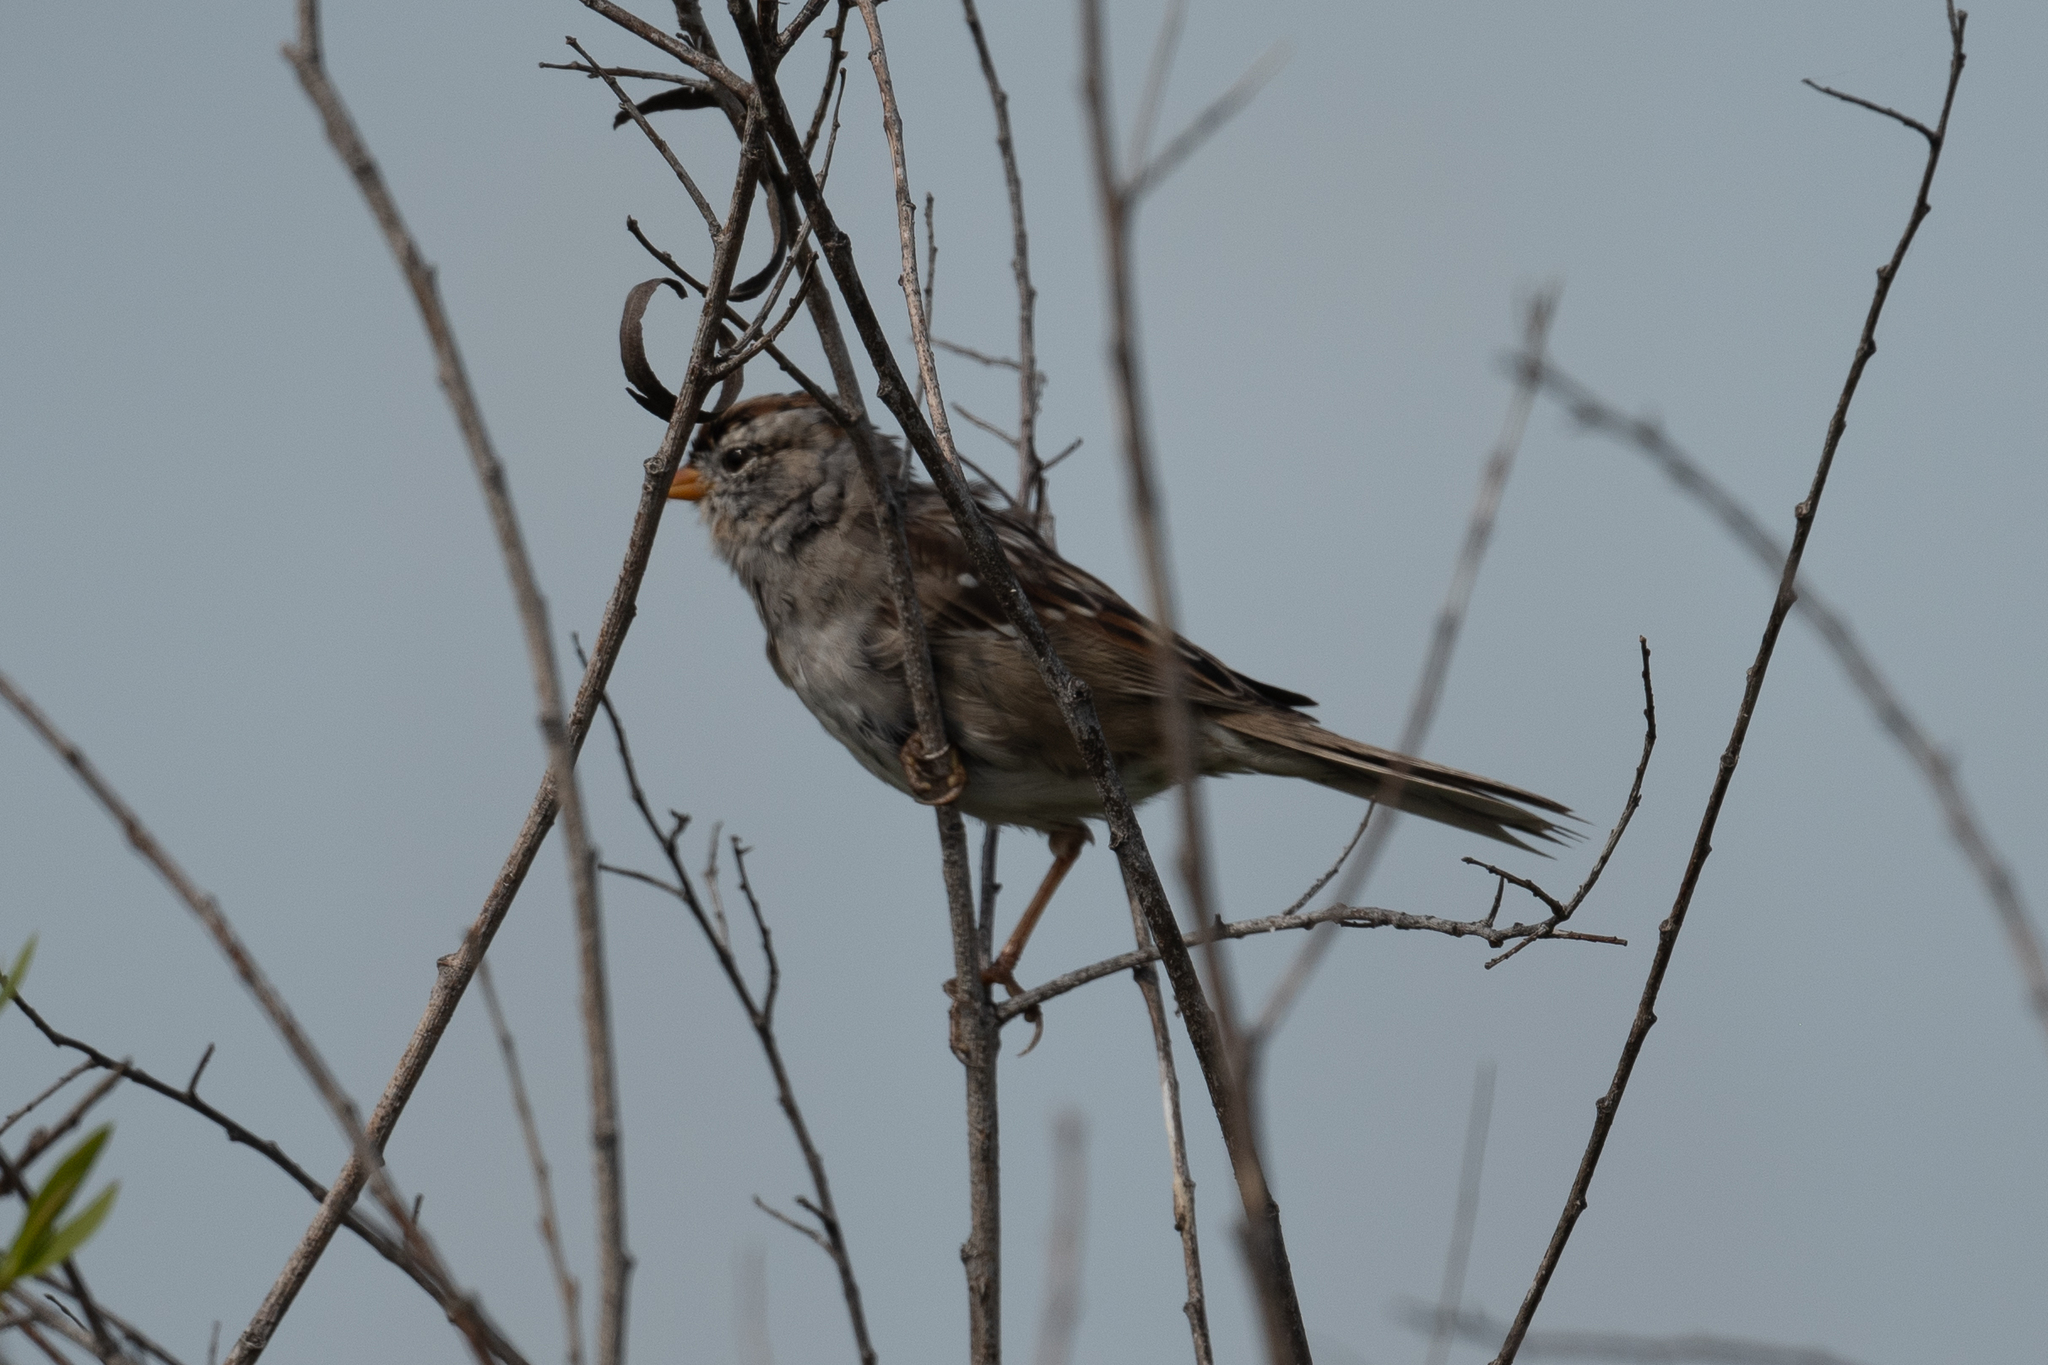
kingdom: Animalia
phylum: Chordata
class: Aves
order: Passeriformes
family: Passerellidae
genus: Zonotrichia
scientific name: Zonotrichia leucophrys
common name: White-crowned sparrow
